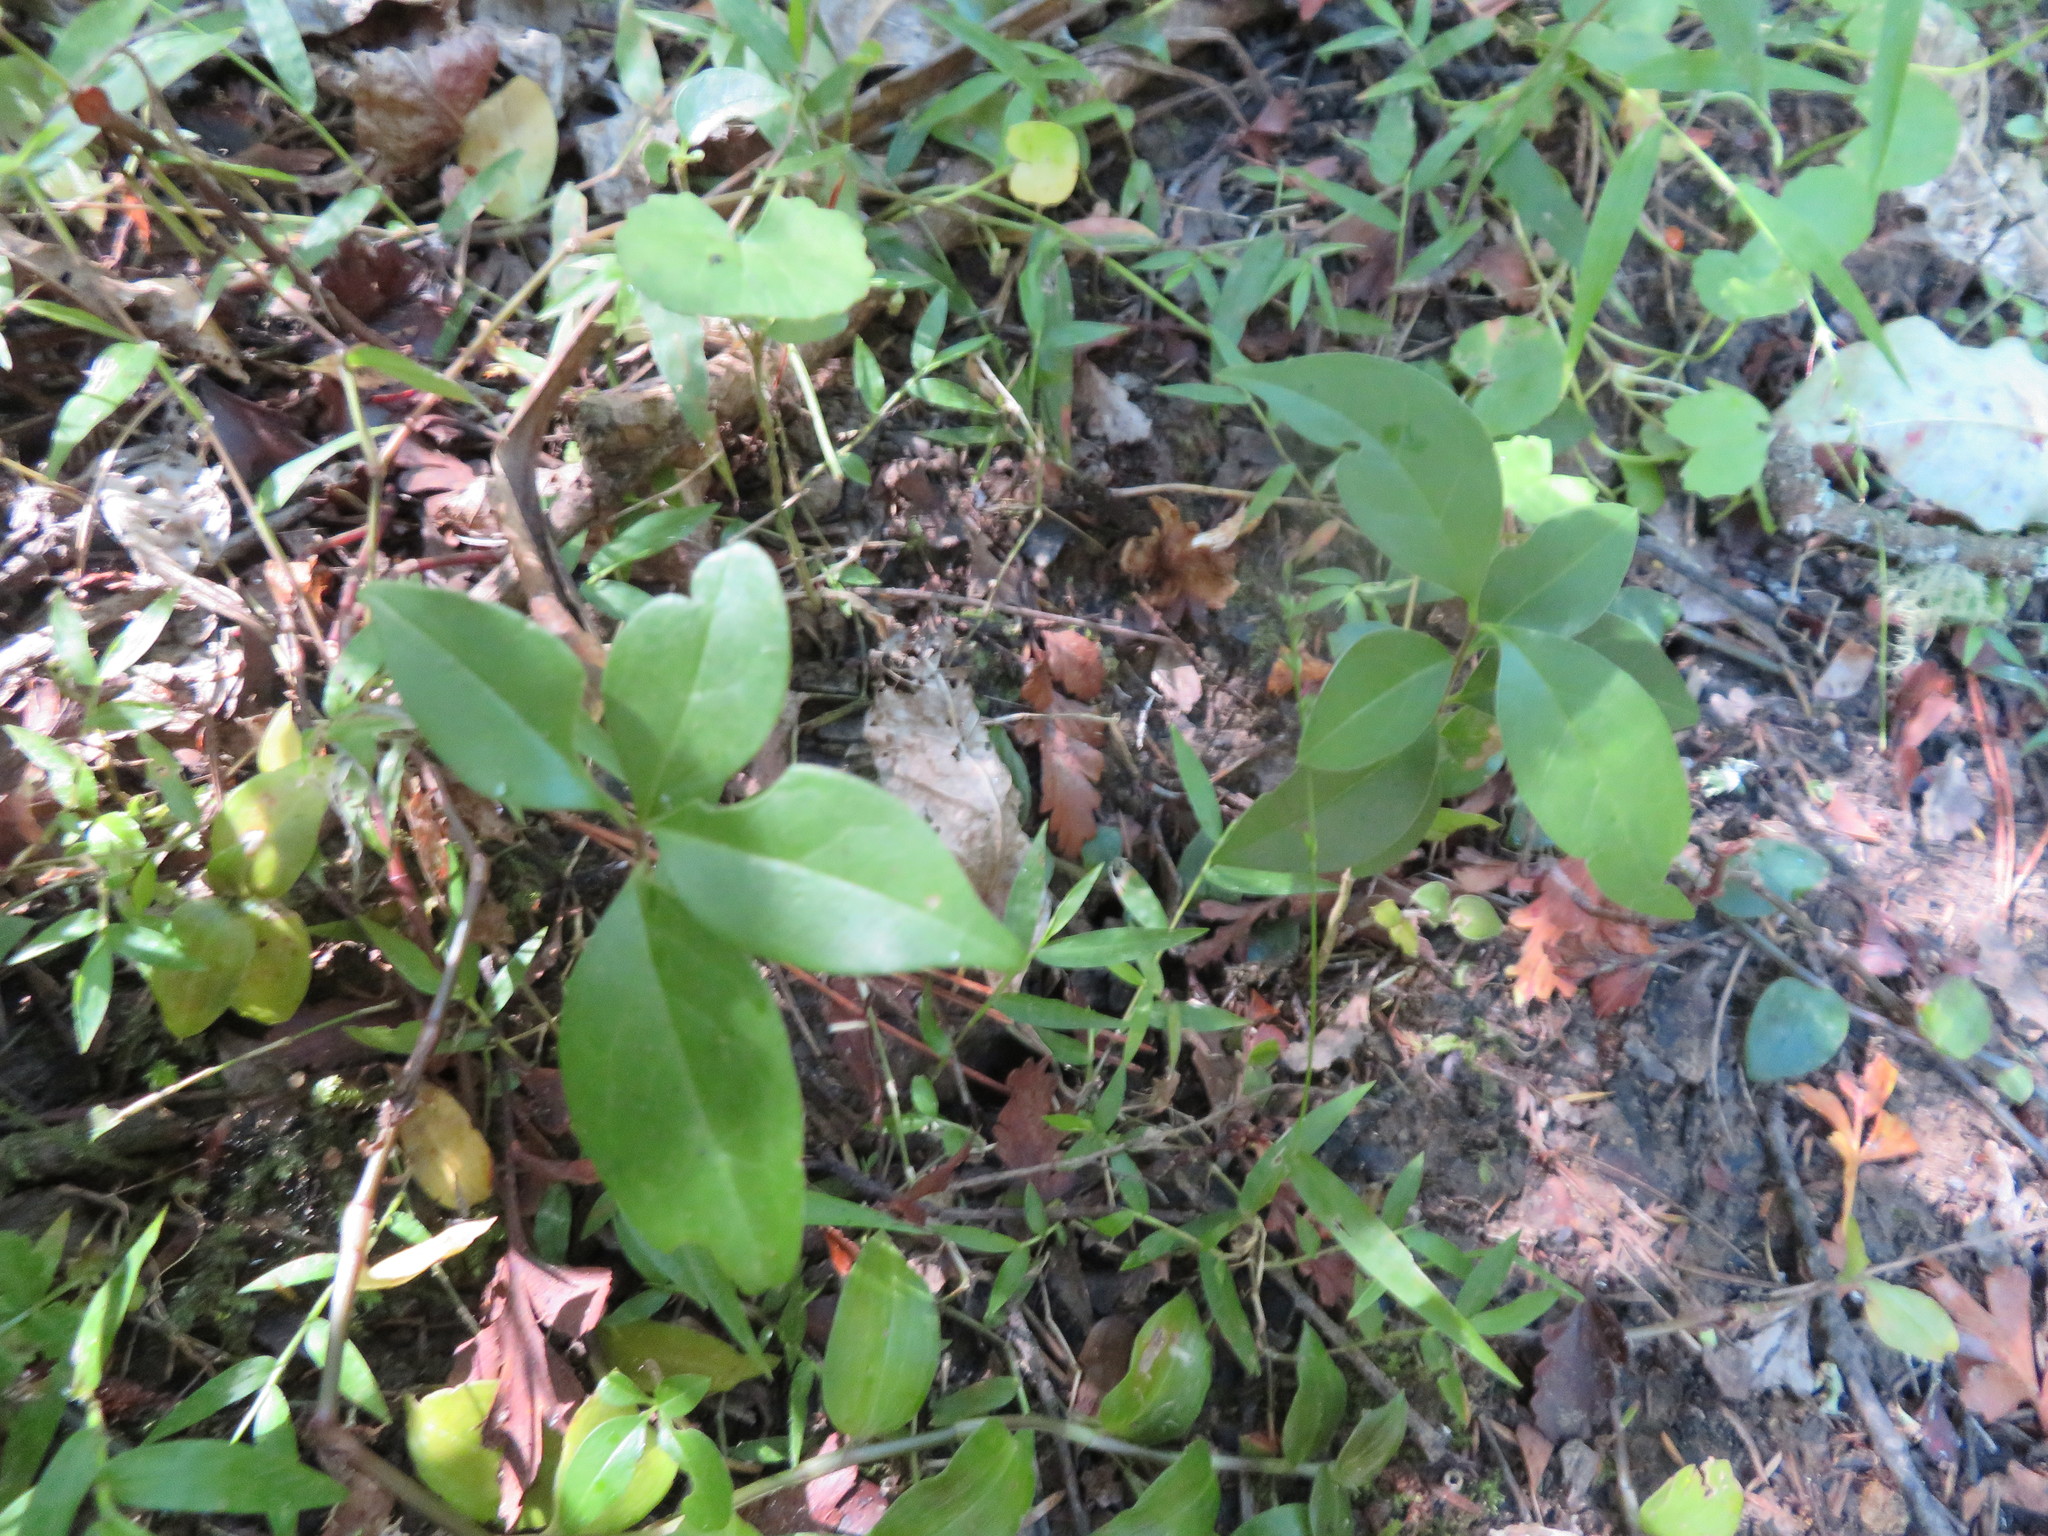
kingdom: Plantae
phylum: Tracheophyta
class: Magnoliopsida
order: Lamiales
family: Oleaceae
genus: Ligustrum
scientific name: Ligustrum lucidum
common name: Glossy privet
